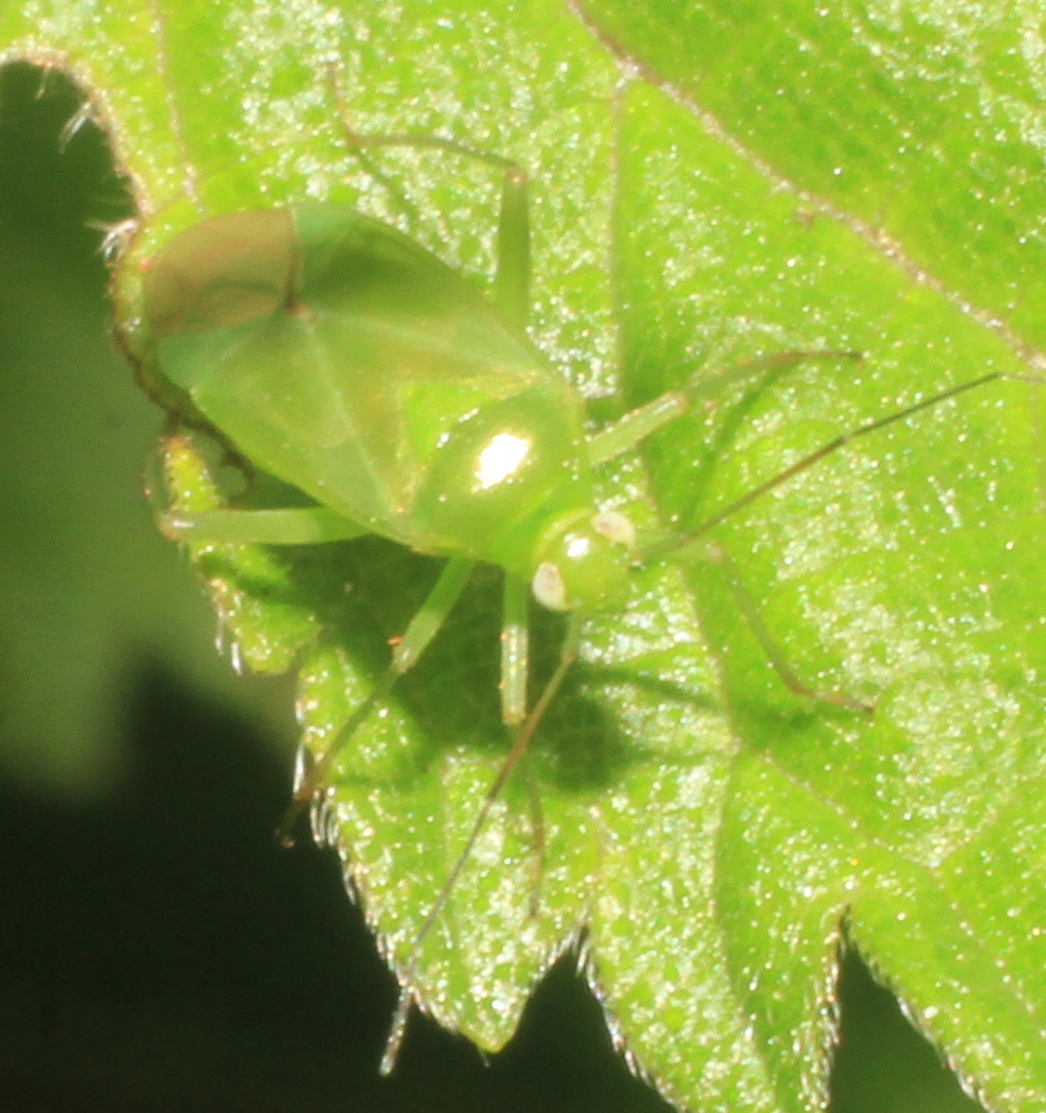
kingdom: Animalia
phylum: Arthropoda
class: Insecta
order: Hemiptera
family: Miridae
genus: Lygocoris
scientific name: Lygocoris pabulinus
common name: Common green capsid
